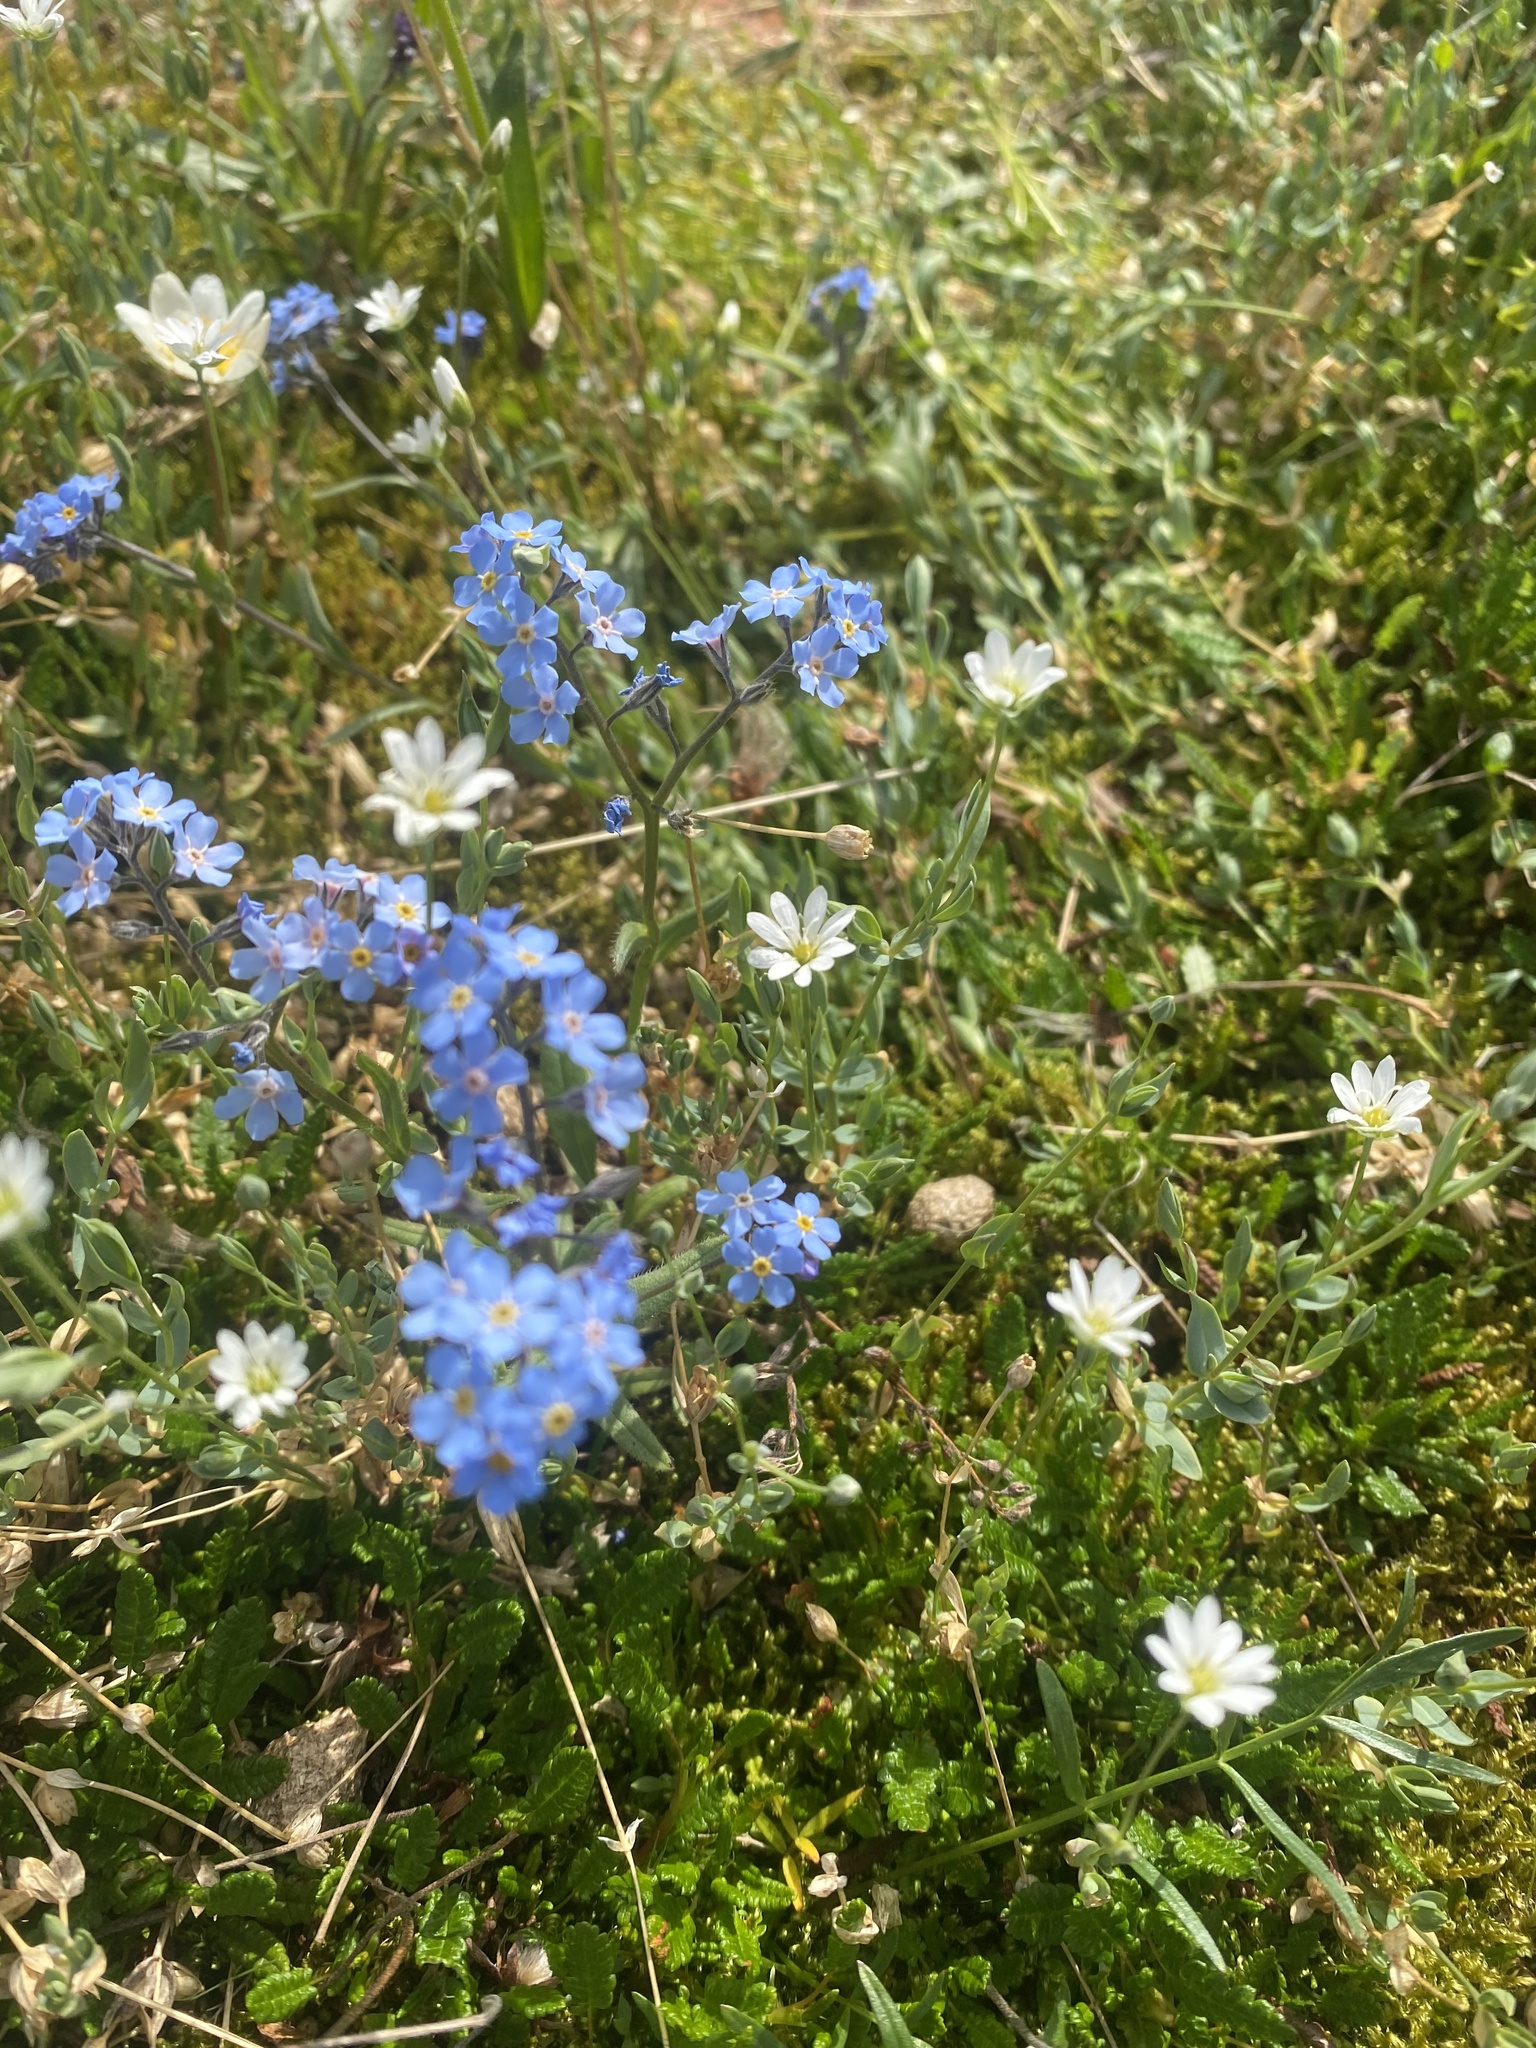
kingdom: Plantae
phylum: Tracheophyta
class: Magnoliopsida
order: Boraginales
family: Boraginaceae
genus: Myosotis
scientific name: Myosotis asiatica
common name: Asian forget-me-not
